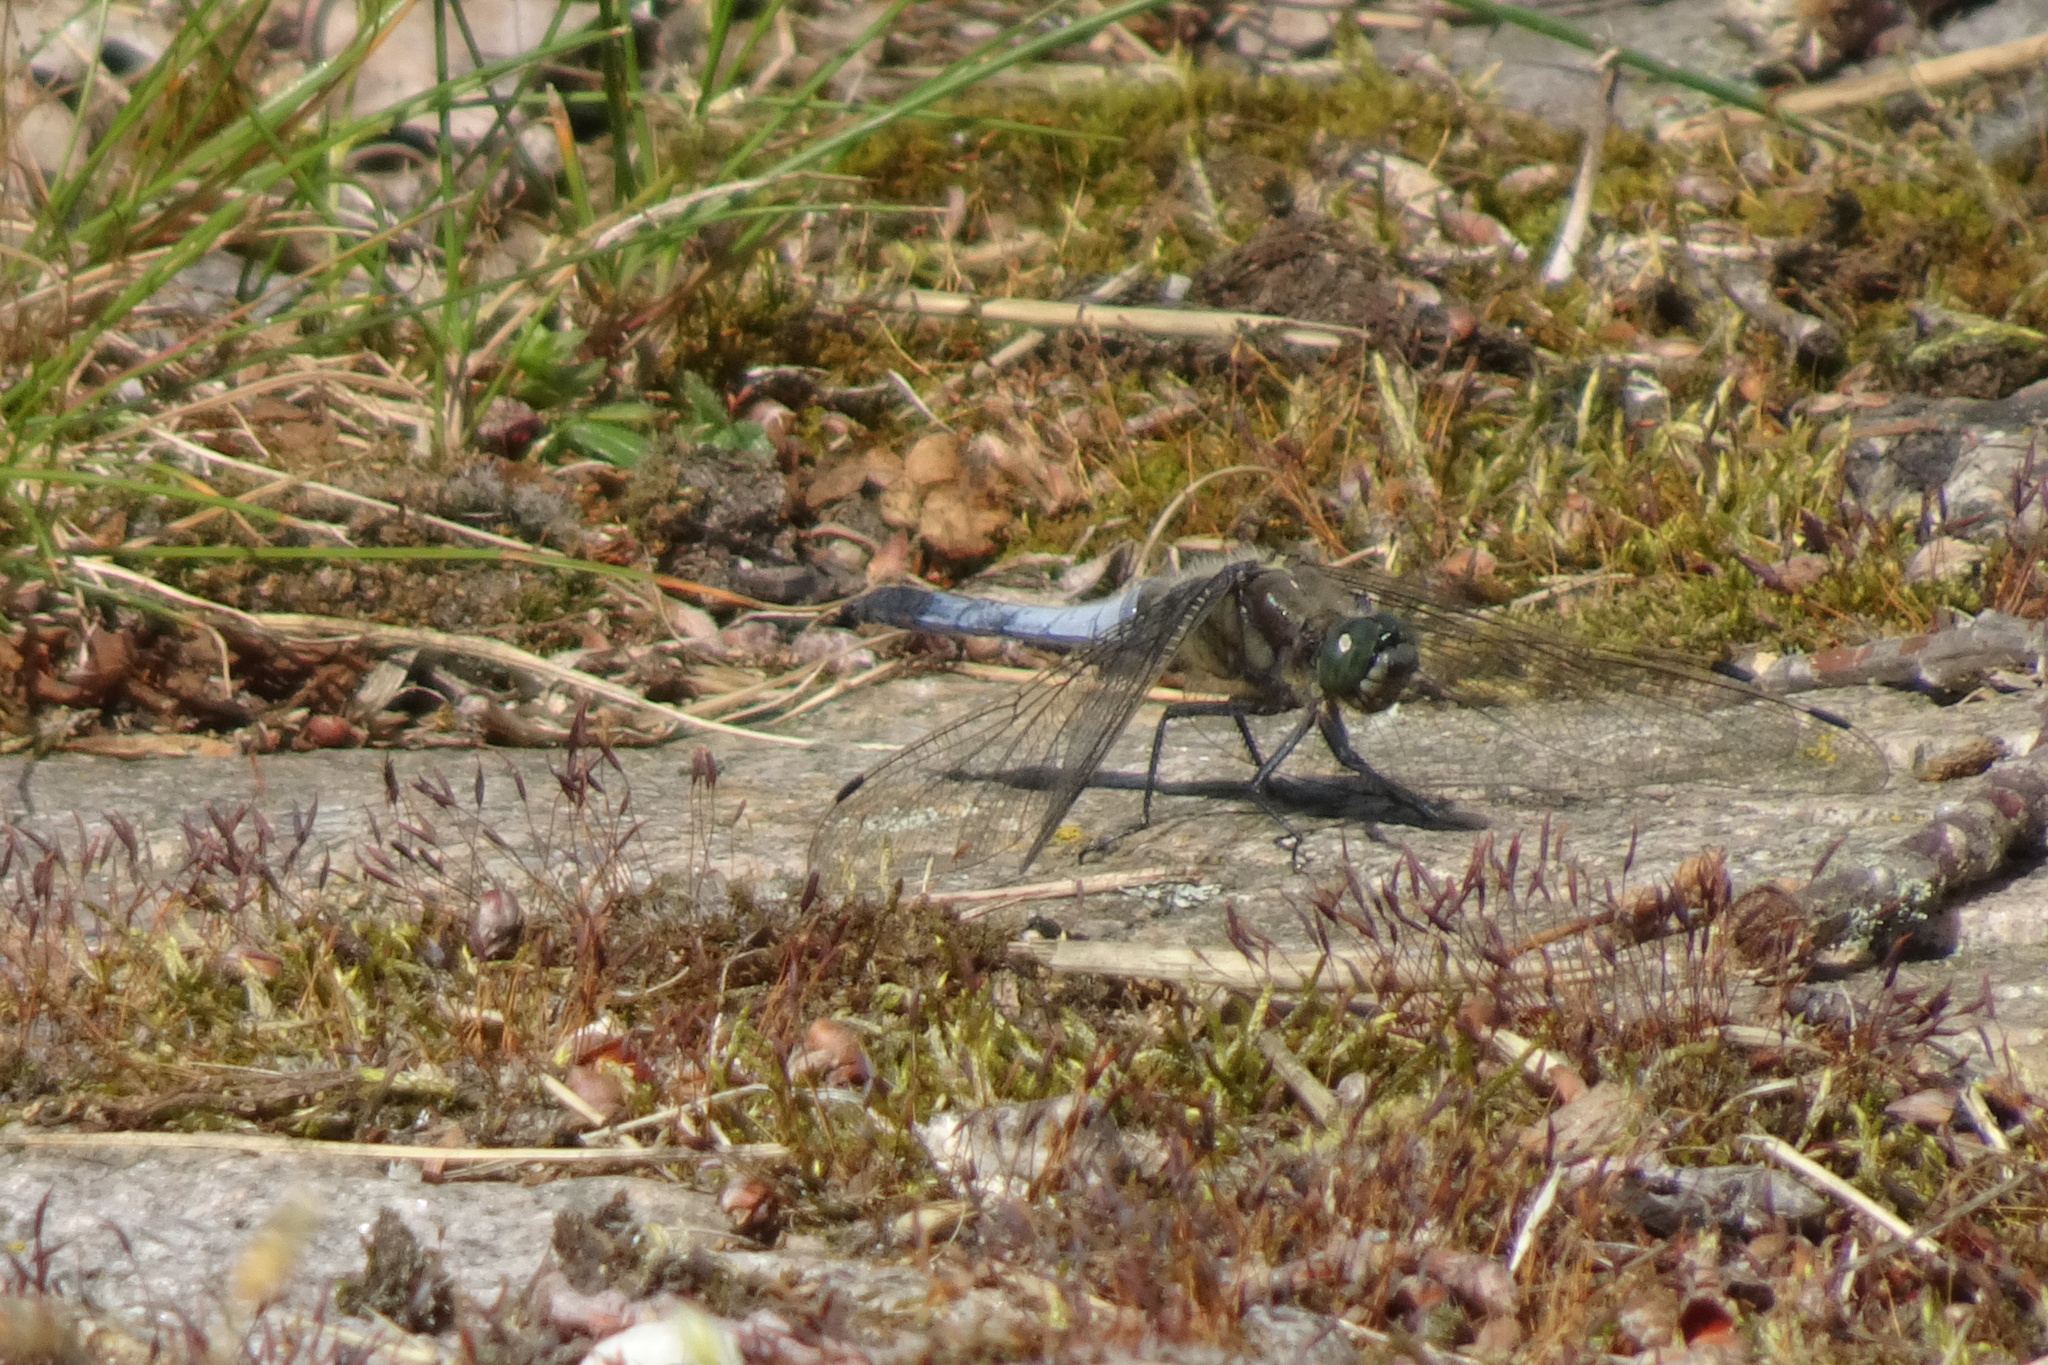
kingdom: Animalia
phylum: Arthropoda
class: Insecta
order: Odonata
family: Libellulidae
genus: Orthetrum
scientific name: Orthetrum cancellatum
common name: Black-tailed skimmer
